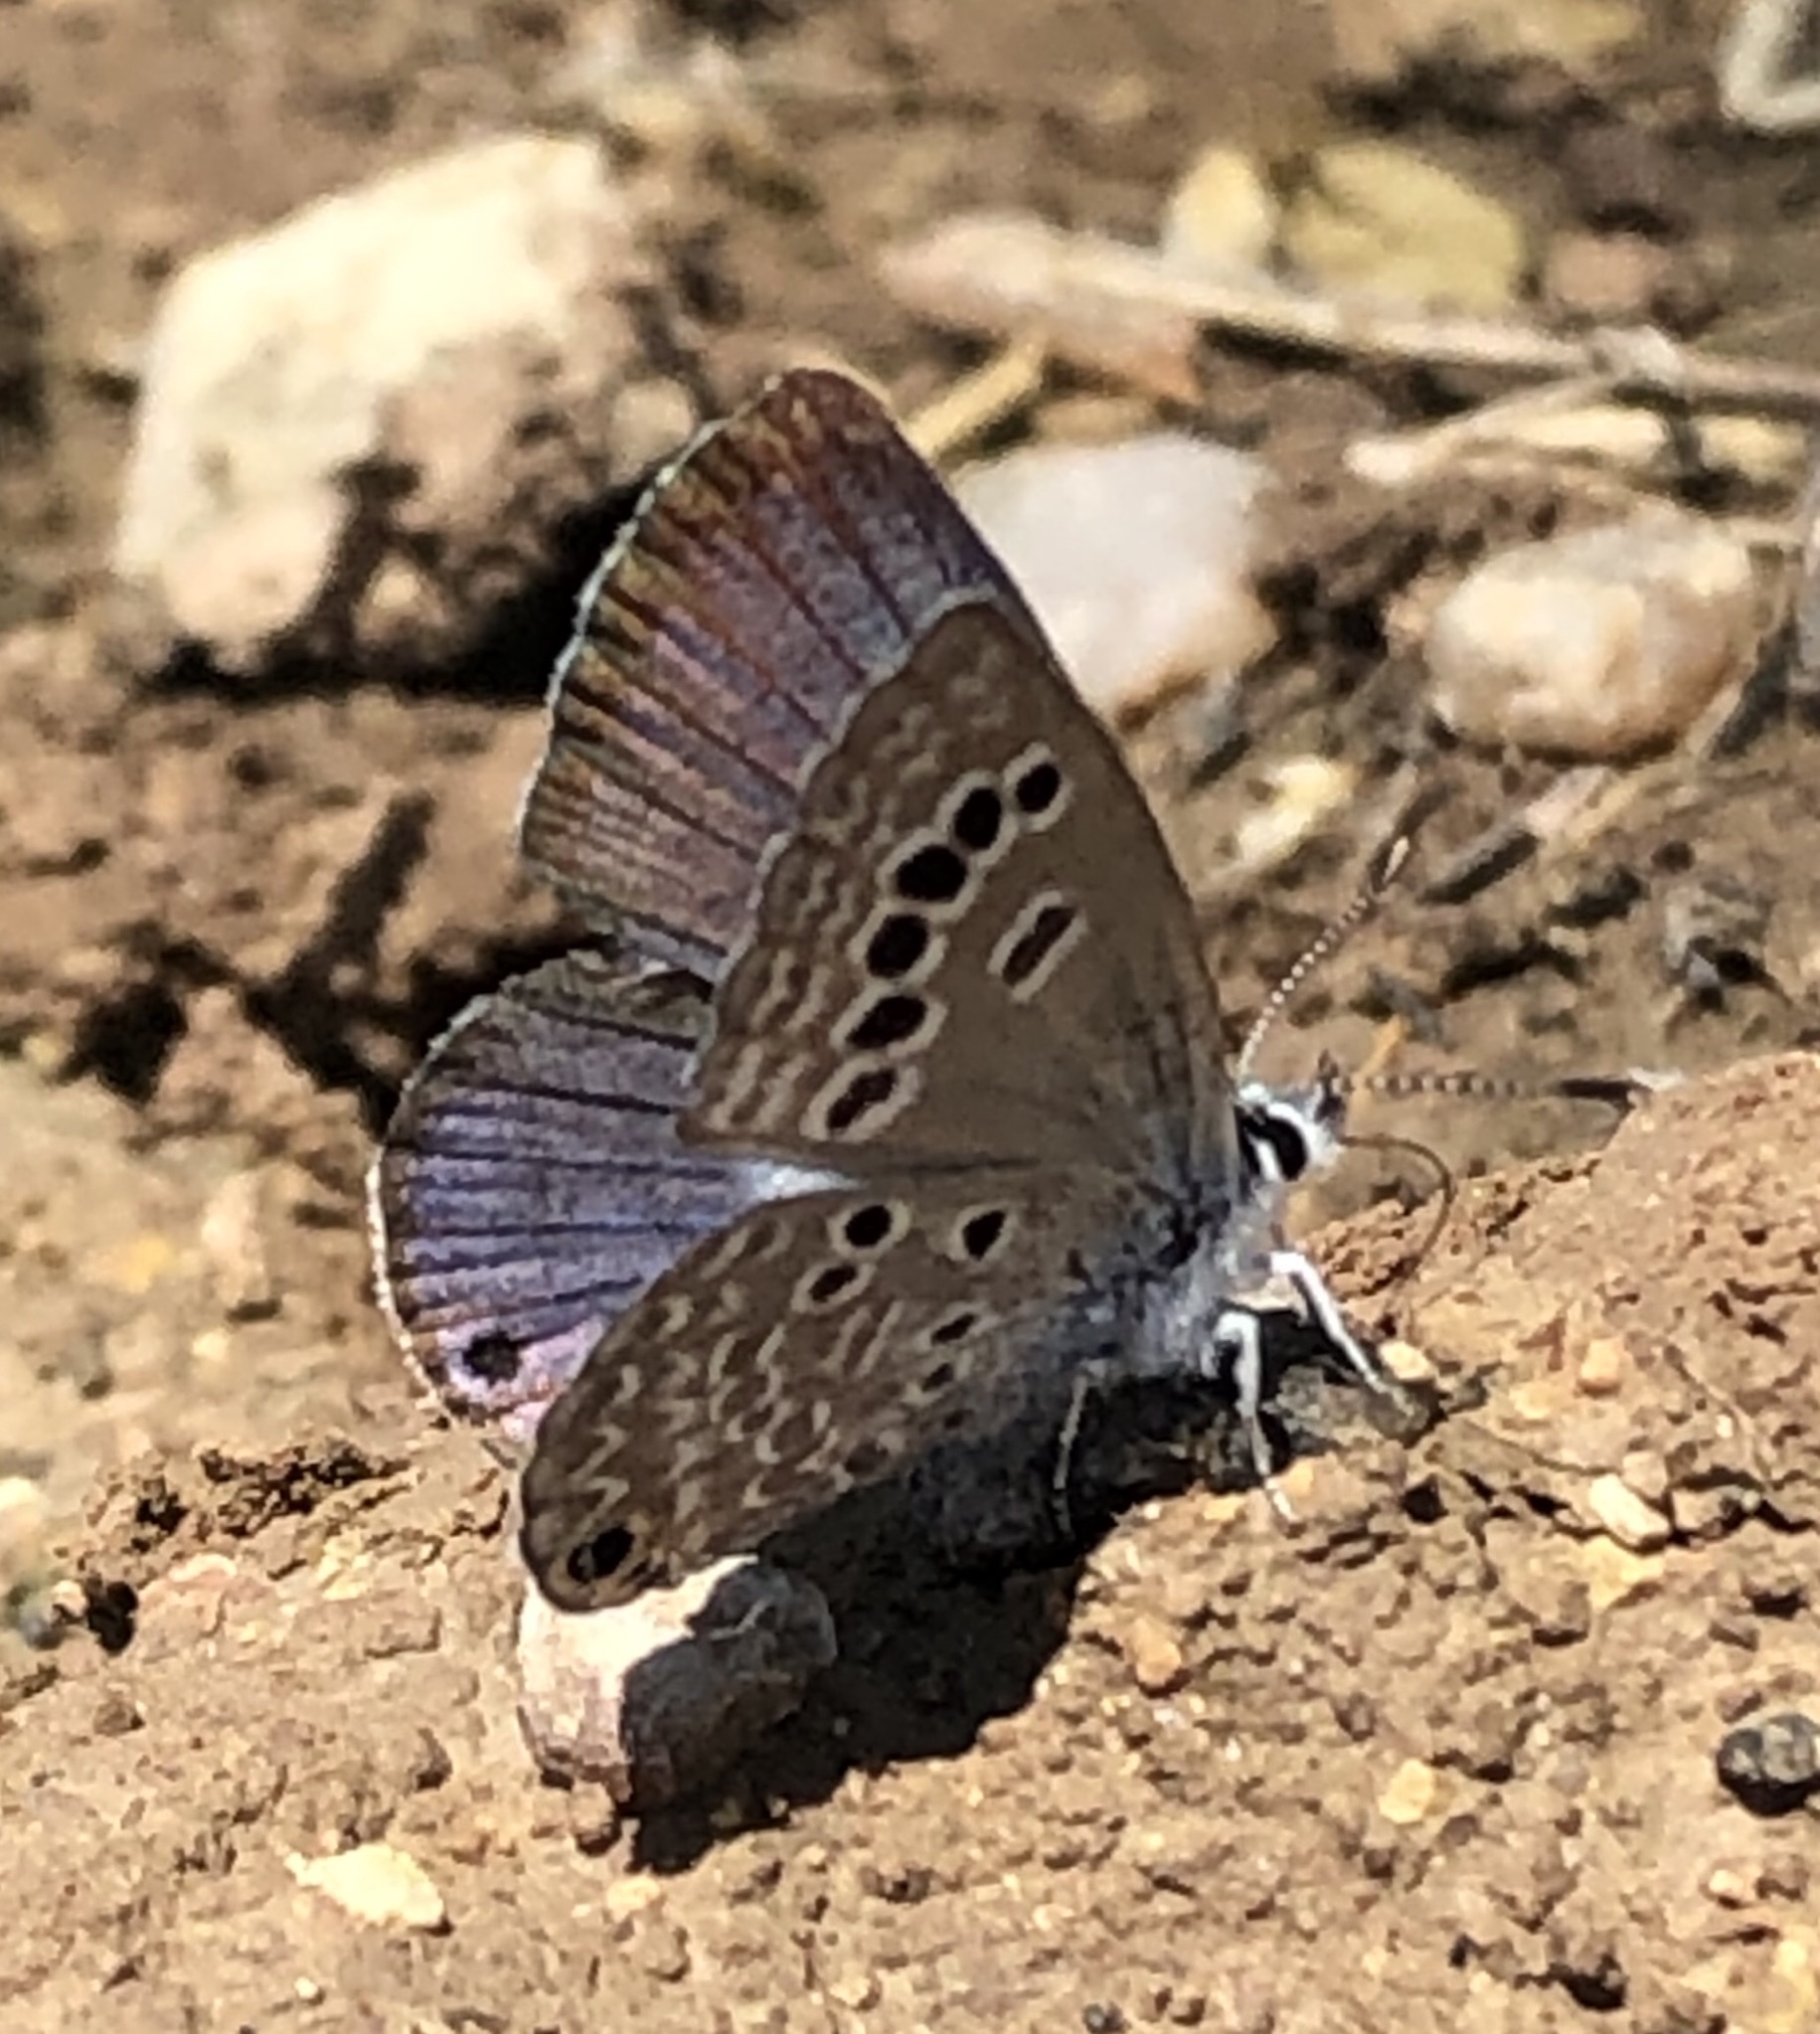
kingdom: Animalia
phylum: Arthropoda
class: Insecta
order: Lepidoptera
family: Lycaenidae
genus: Echinargus
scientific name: Echinargus isola
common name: Reakirt's blue
